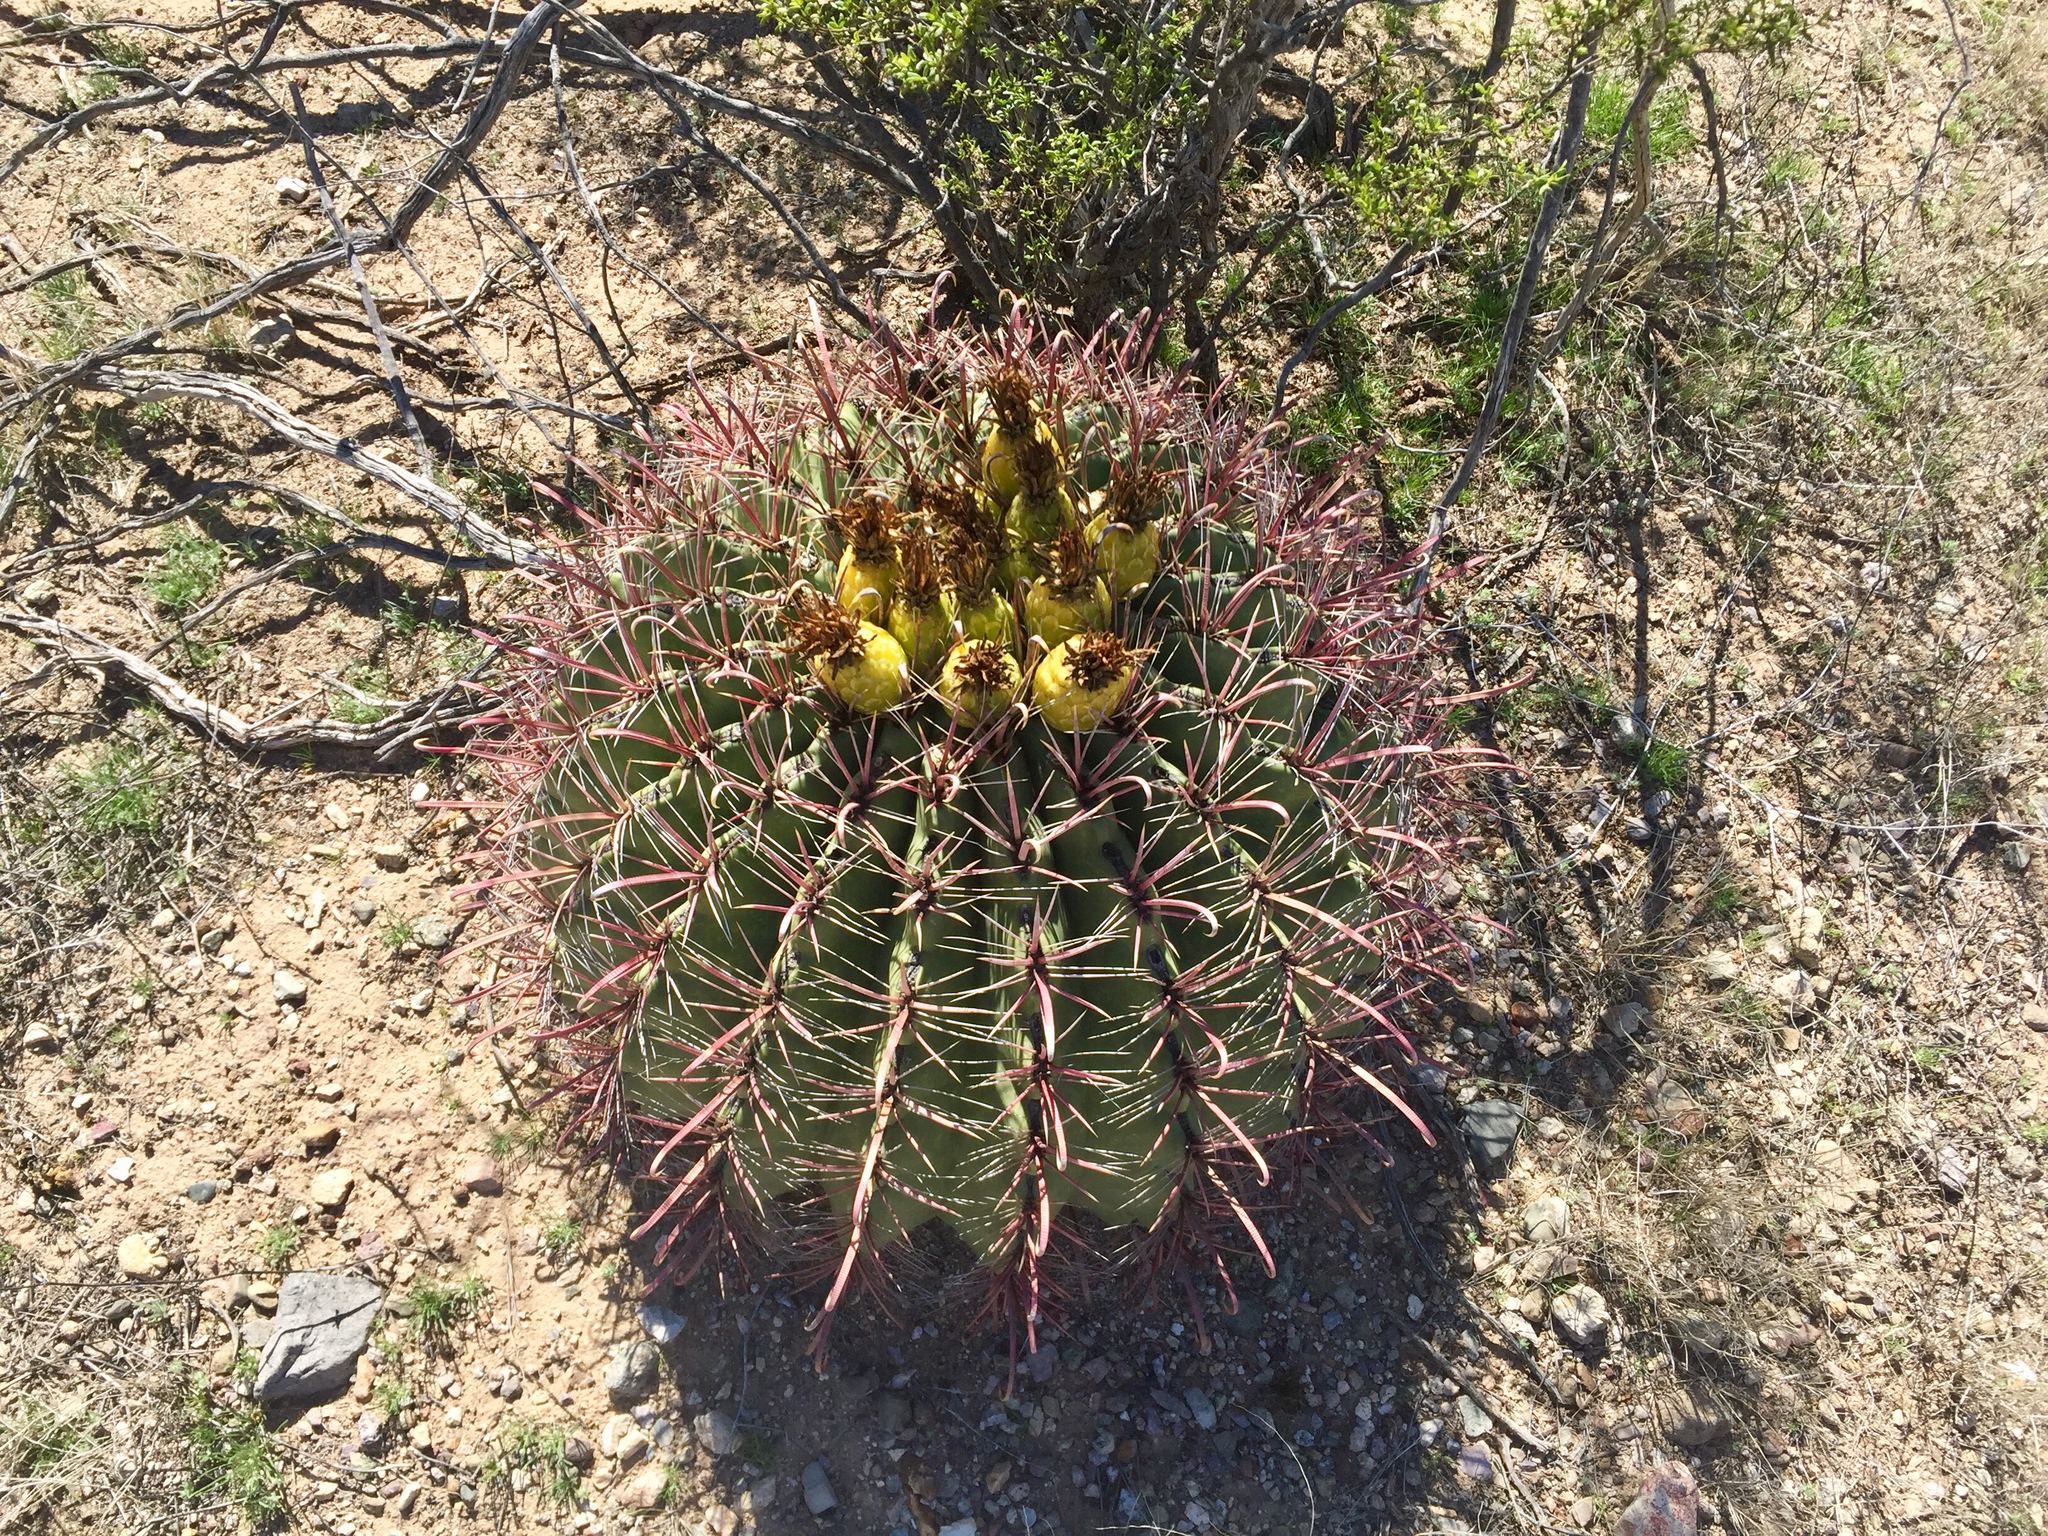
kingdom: Plantae
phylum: Tracheophyta
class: Magnoliopsida
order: Caryophyllales
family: Cactaceae
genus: Ferocactus
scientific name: Ferocactus wislizeni
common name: Candy barrel cactus
